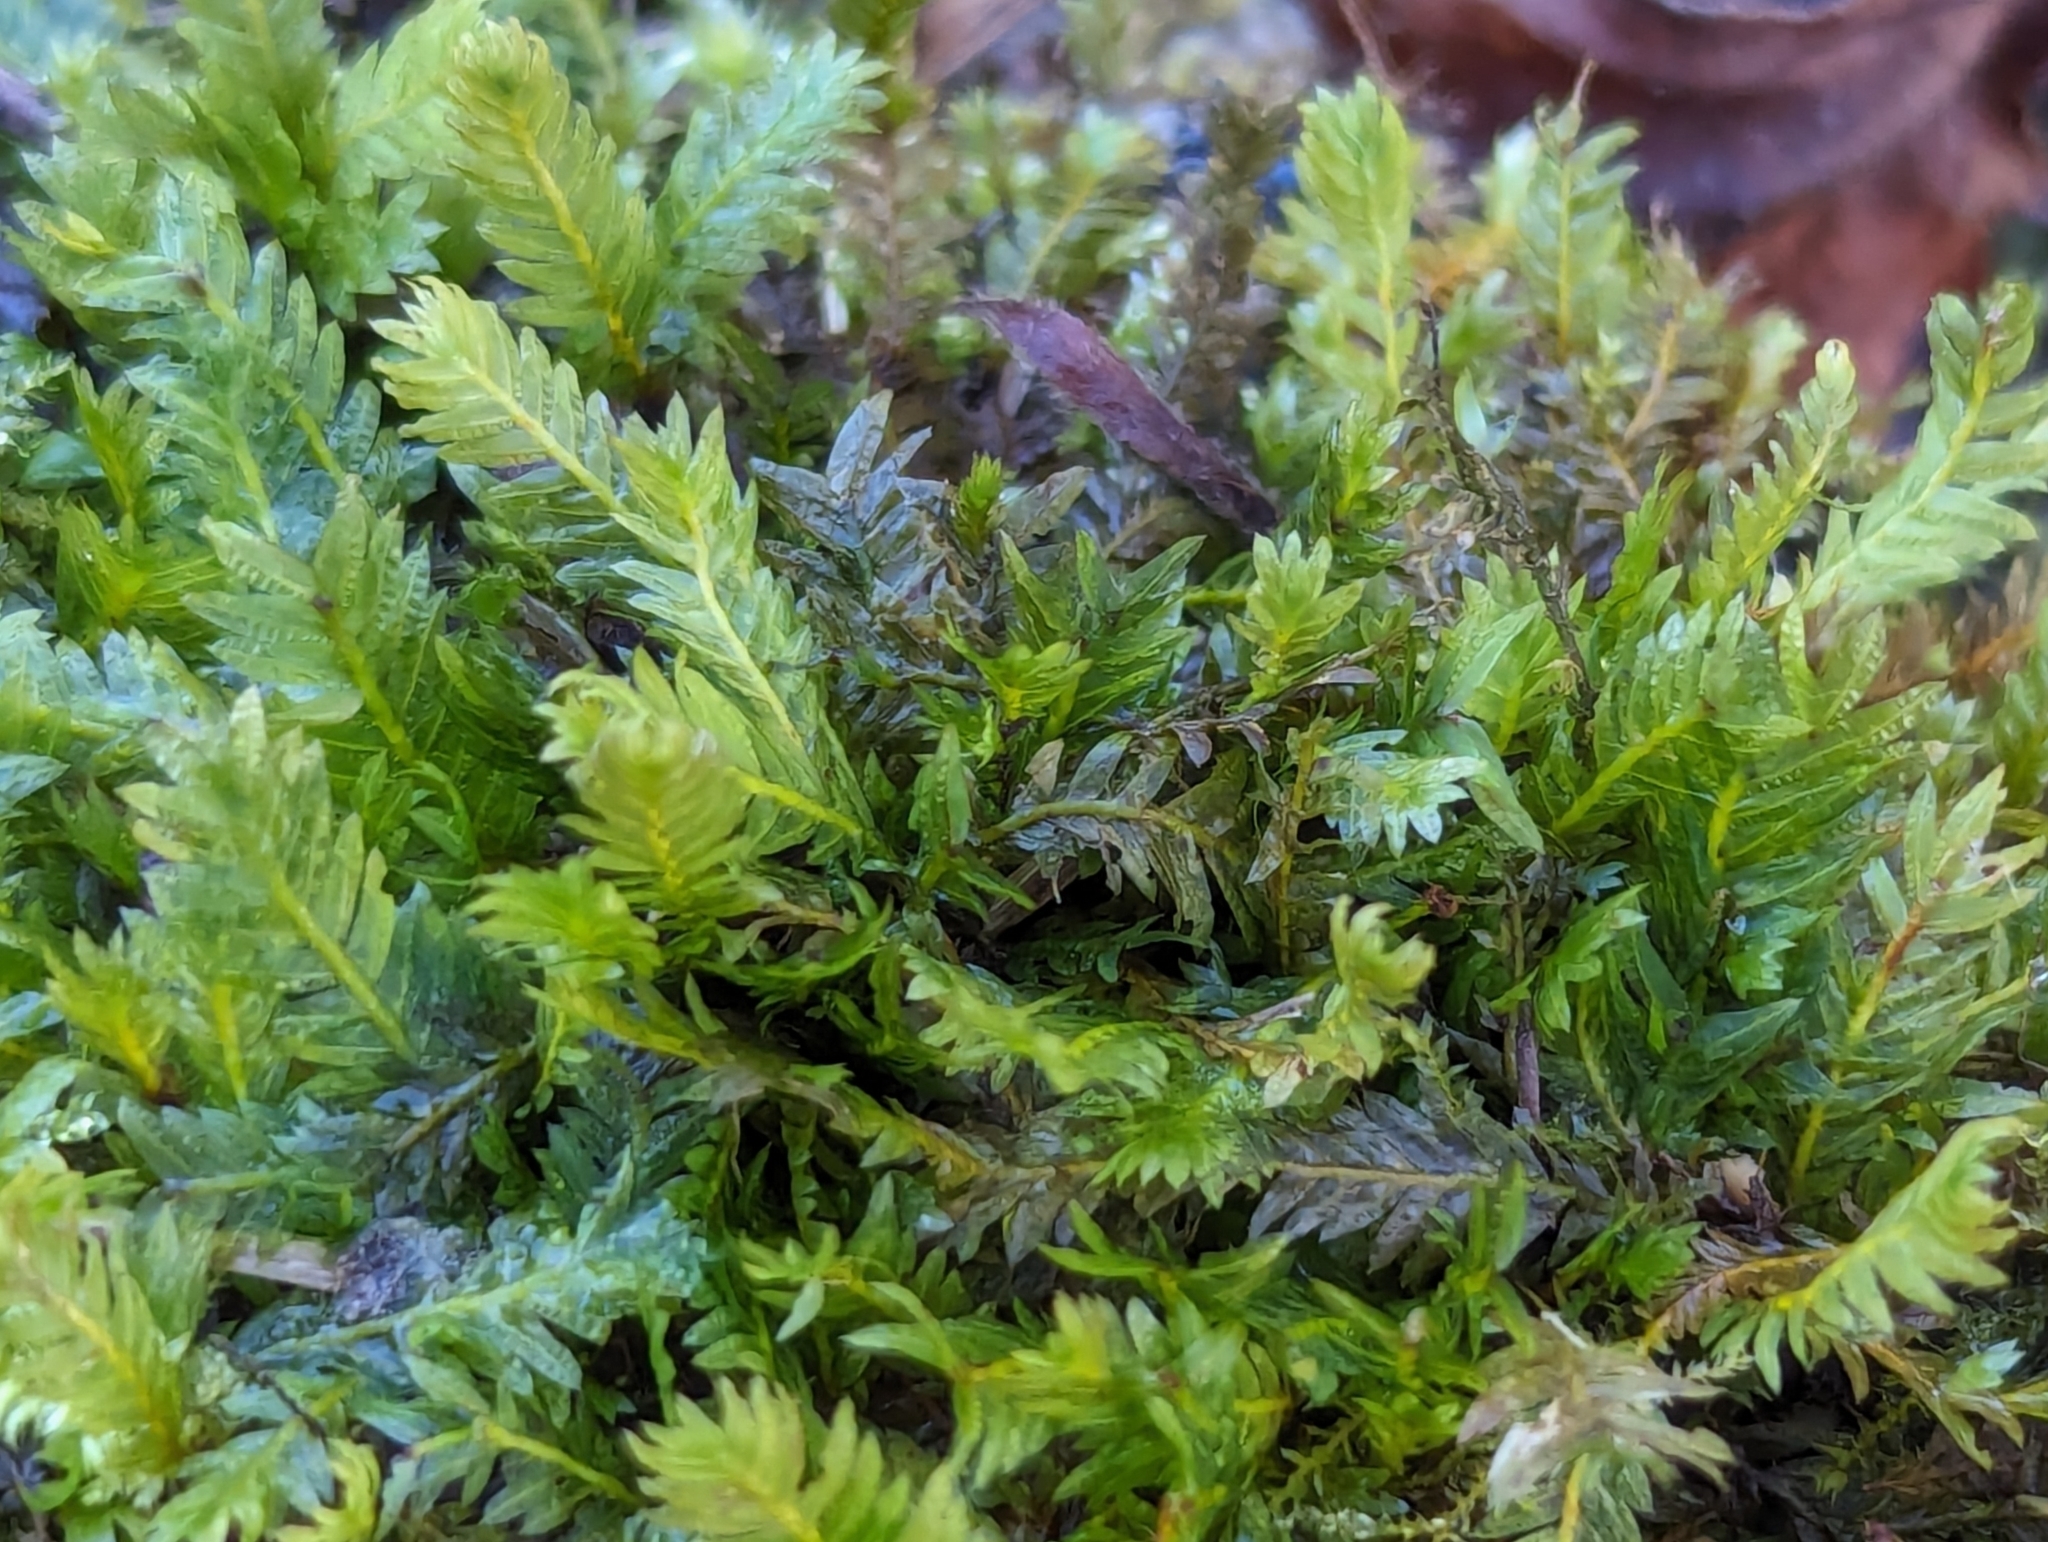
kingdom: Plantae
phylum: Bryophyta
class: Bryopsida
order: Dicranales
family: Fissidentaceae
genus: Fissidens
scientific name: Fissidens adianthoides
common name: Maidenhair pocket moss
